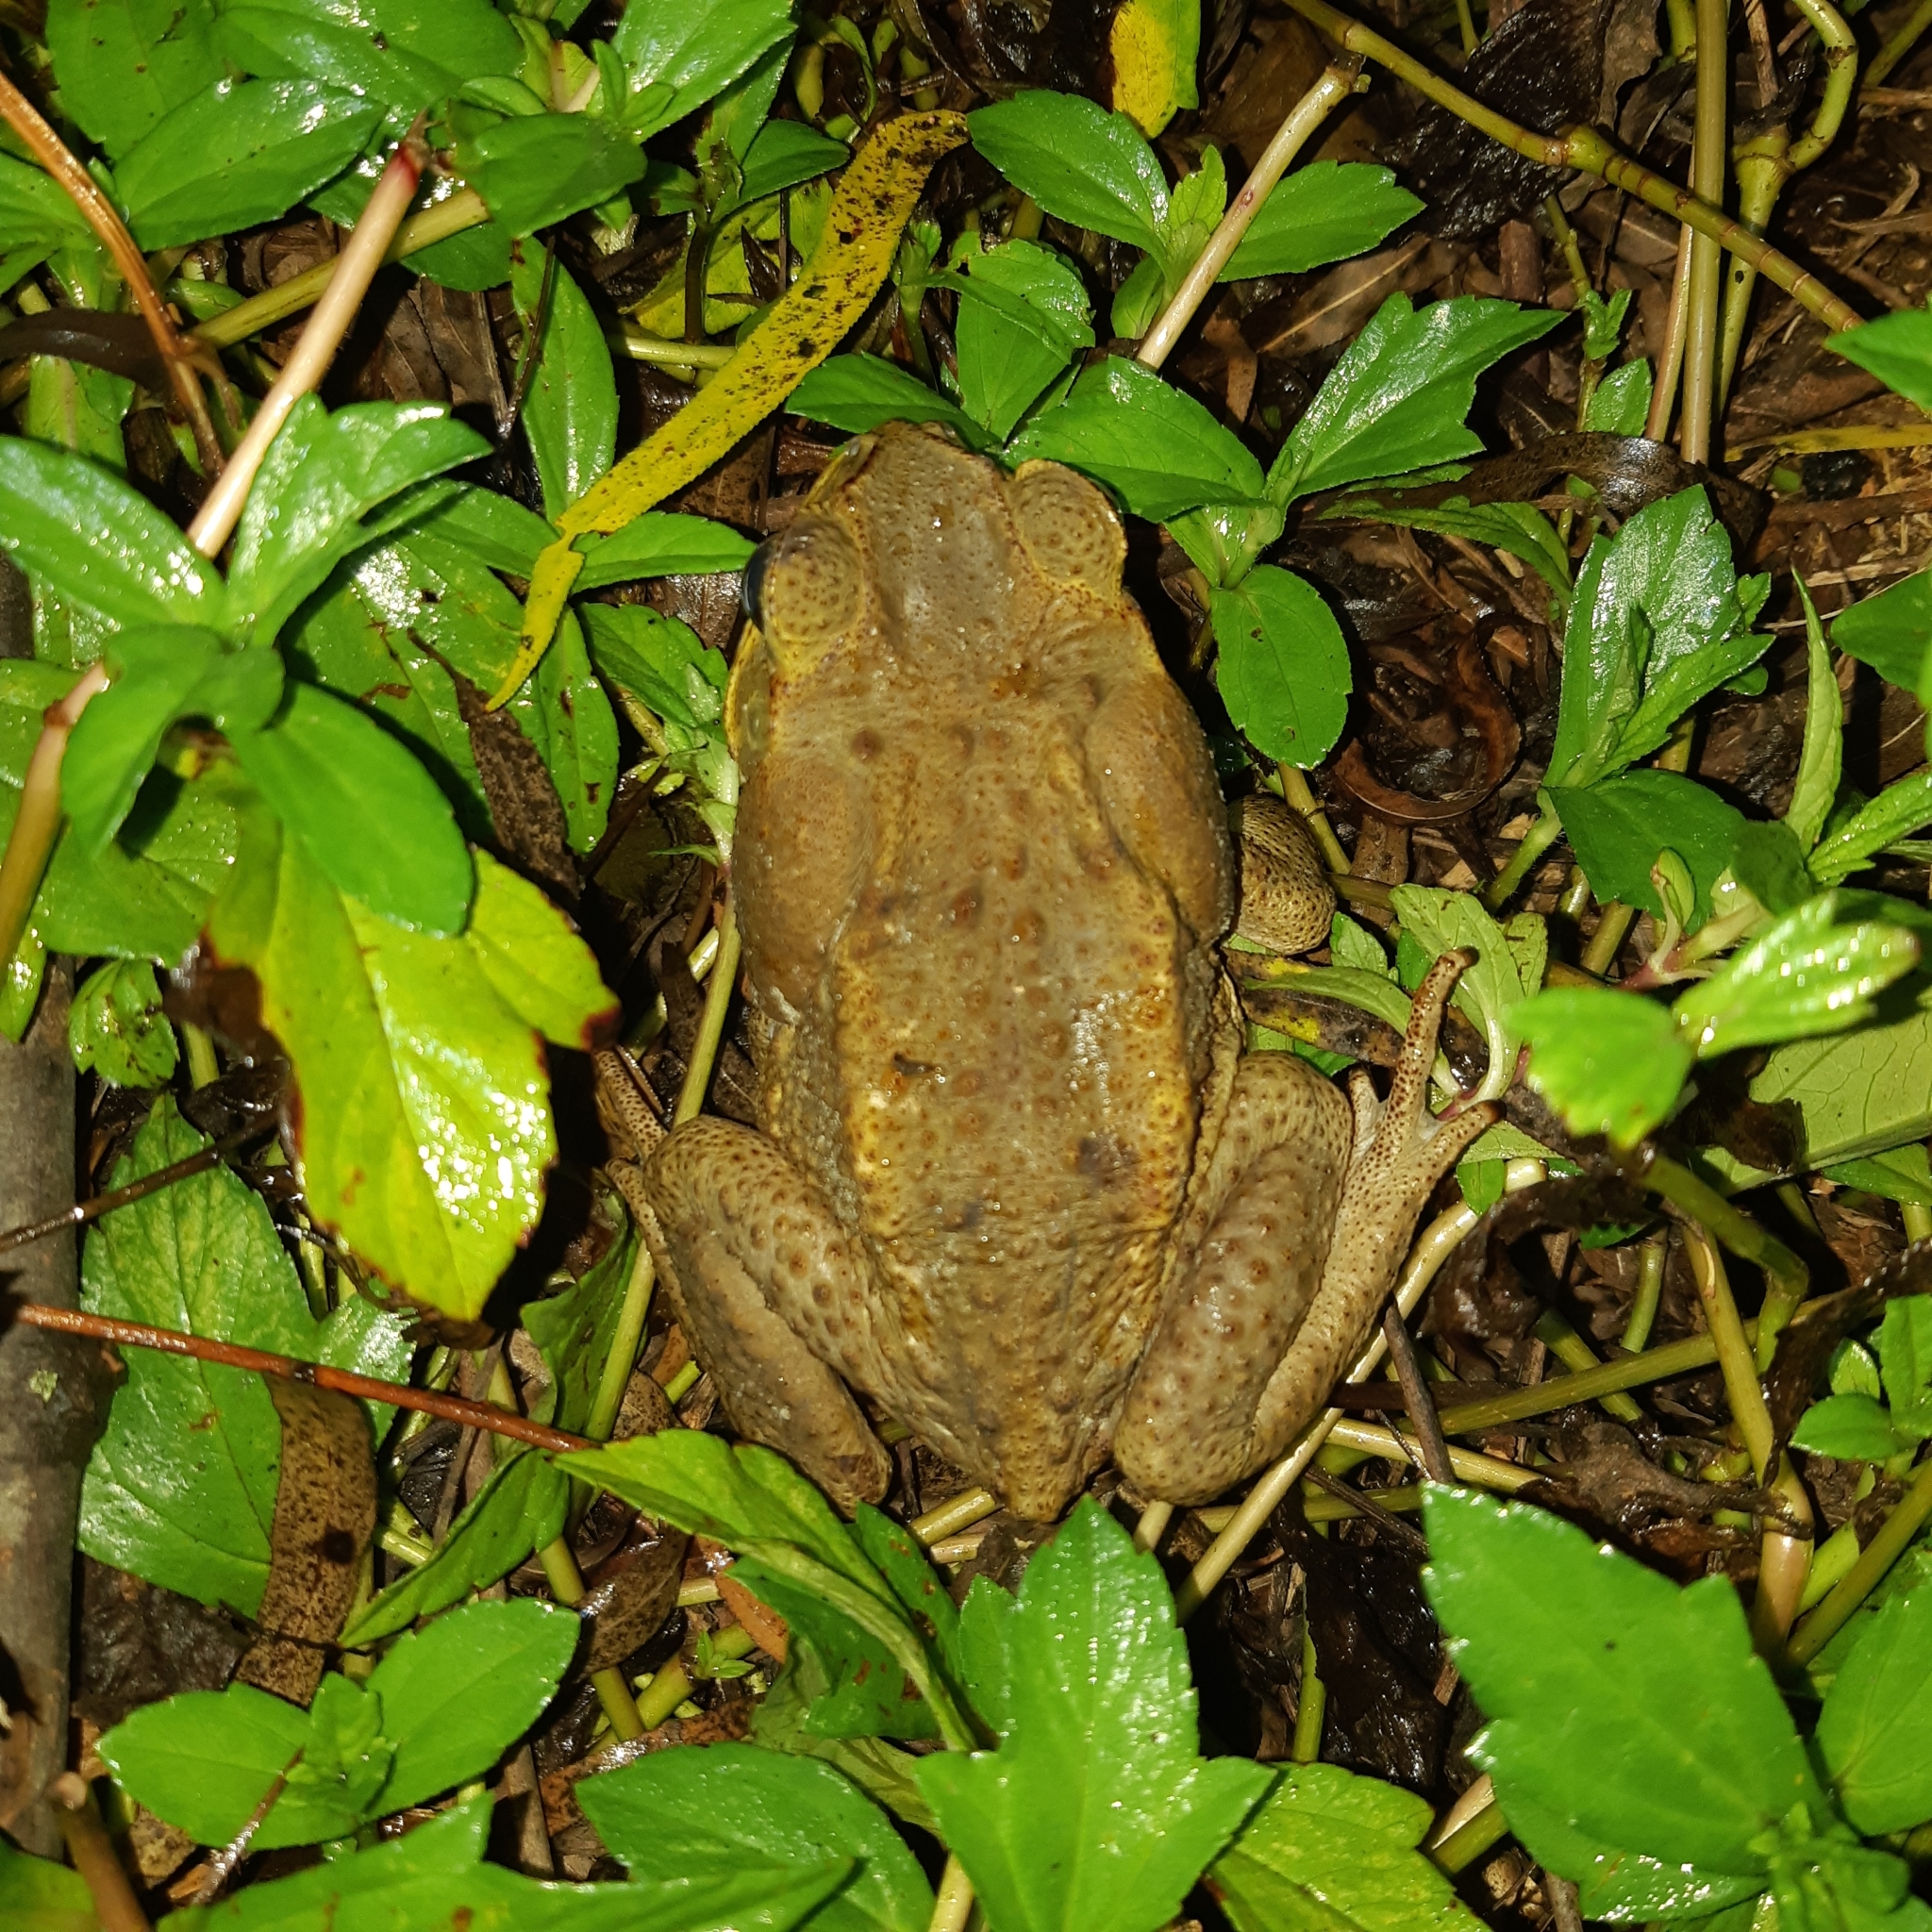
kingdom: Animalia
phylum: Chordata
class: Amphibia
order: Anura
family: Bufonidae
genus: Rhinella
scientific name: Rhinella horribilis
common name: Mesoamerican cane toad
